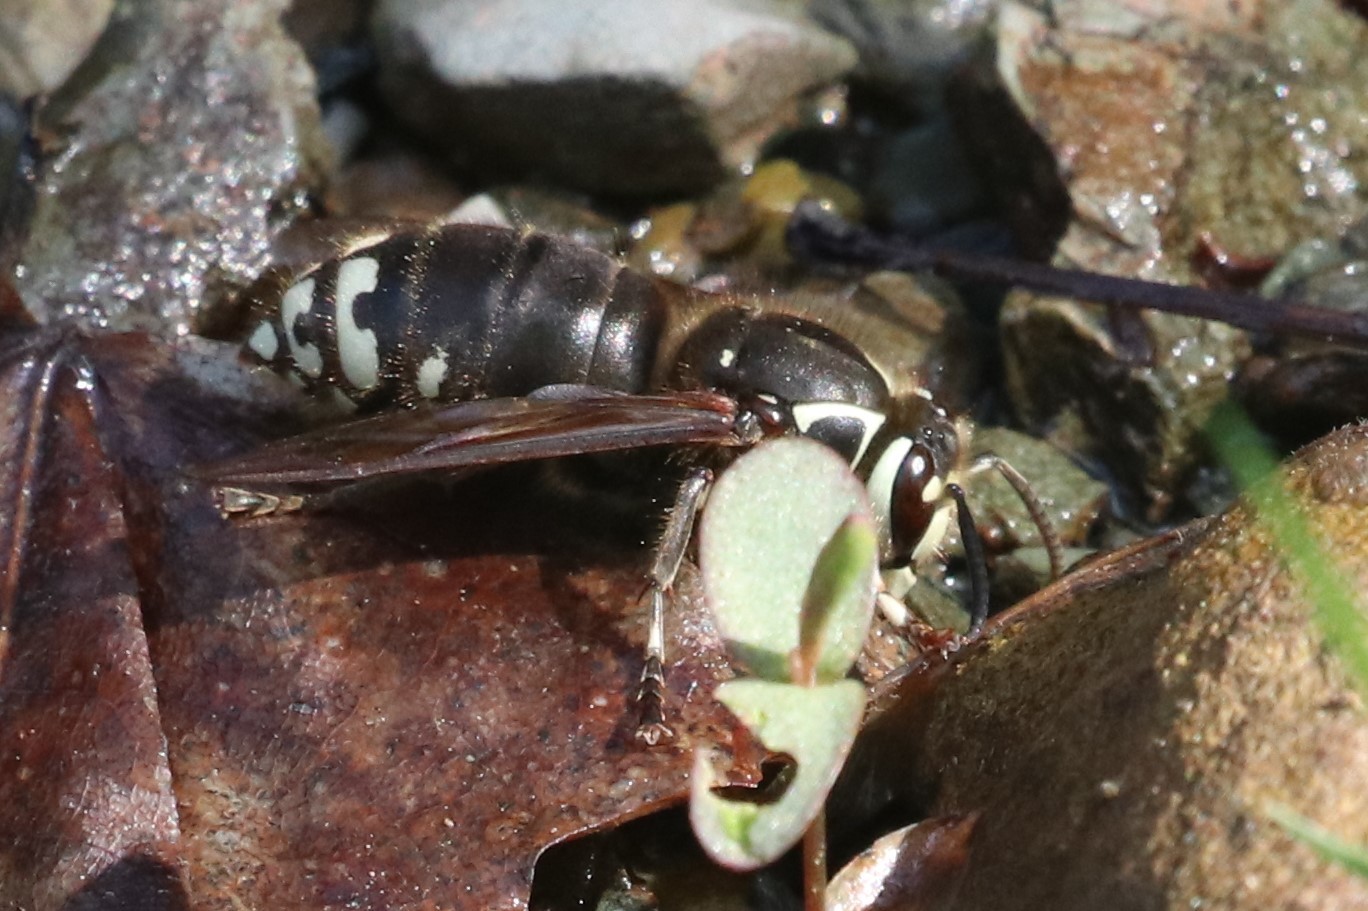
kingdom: Animalia
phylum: Arthropoda
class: Insecta
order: Hymenoptera
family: Vespidae
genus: Dolichovespula
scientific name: Dolichovespula maculata
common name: Bald-faced hornet
